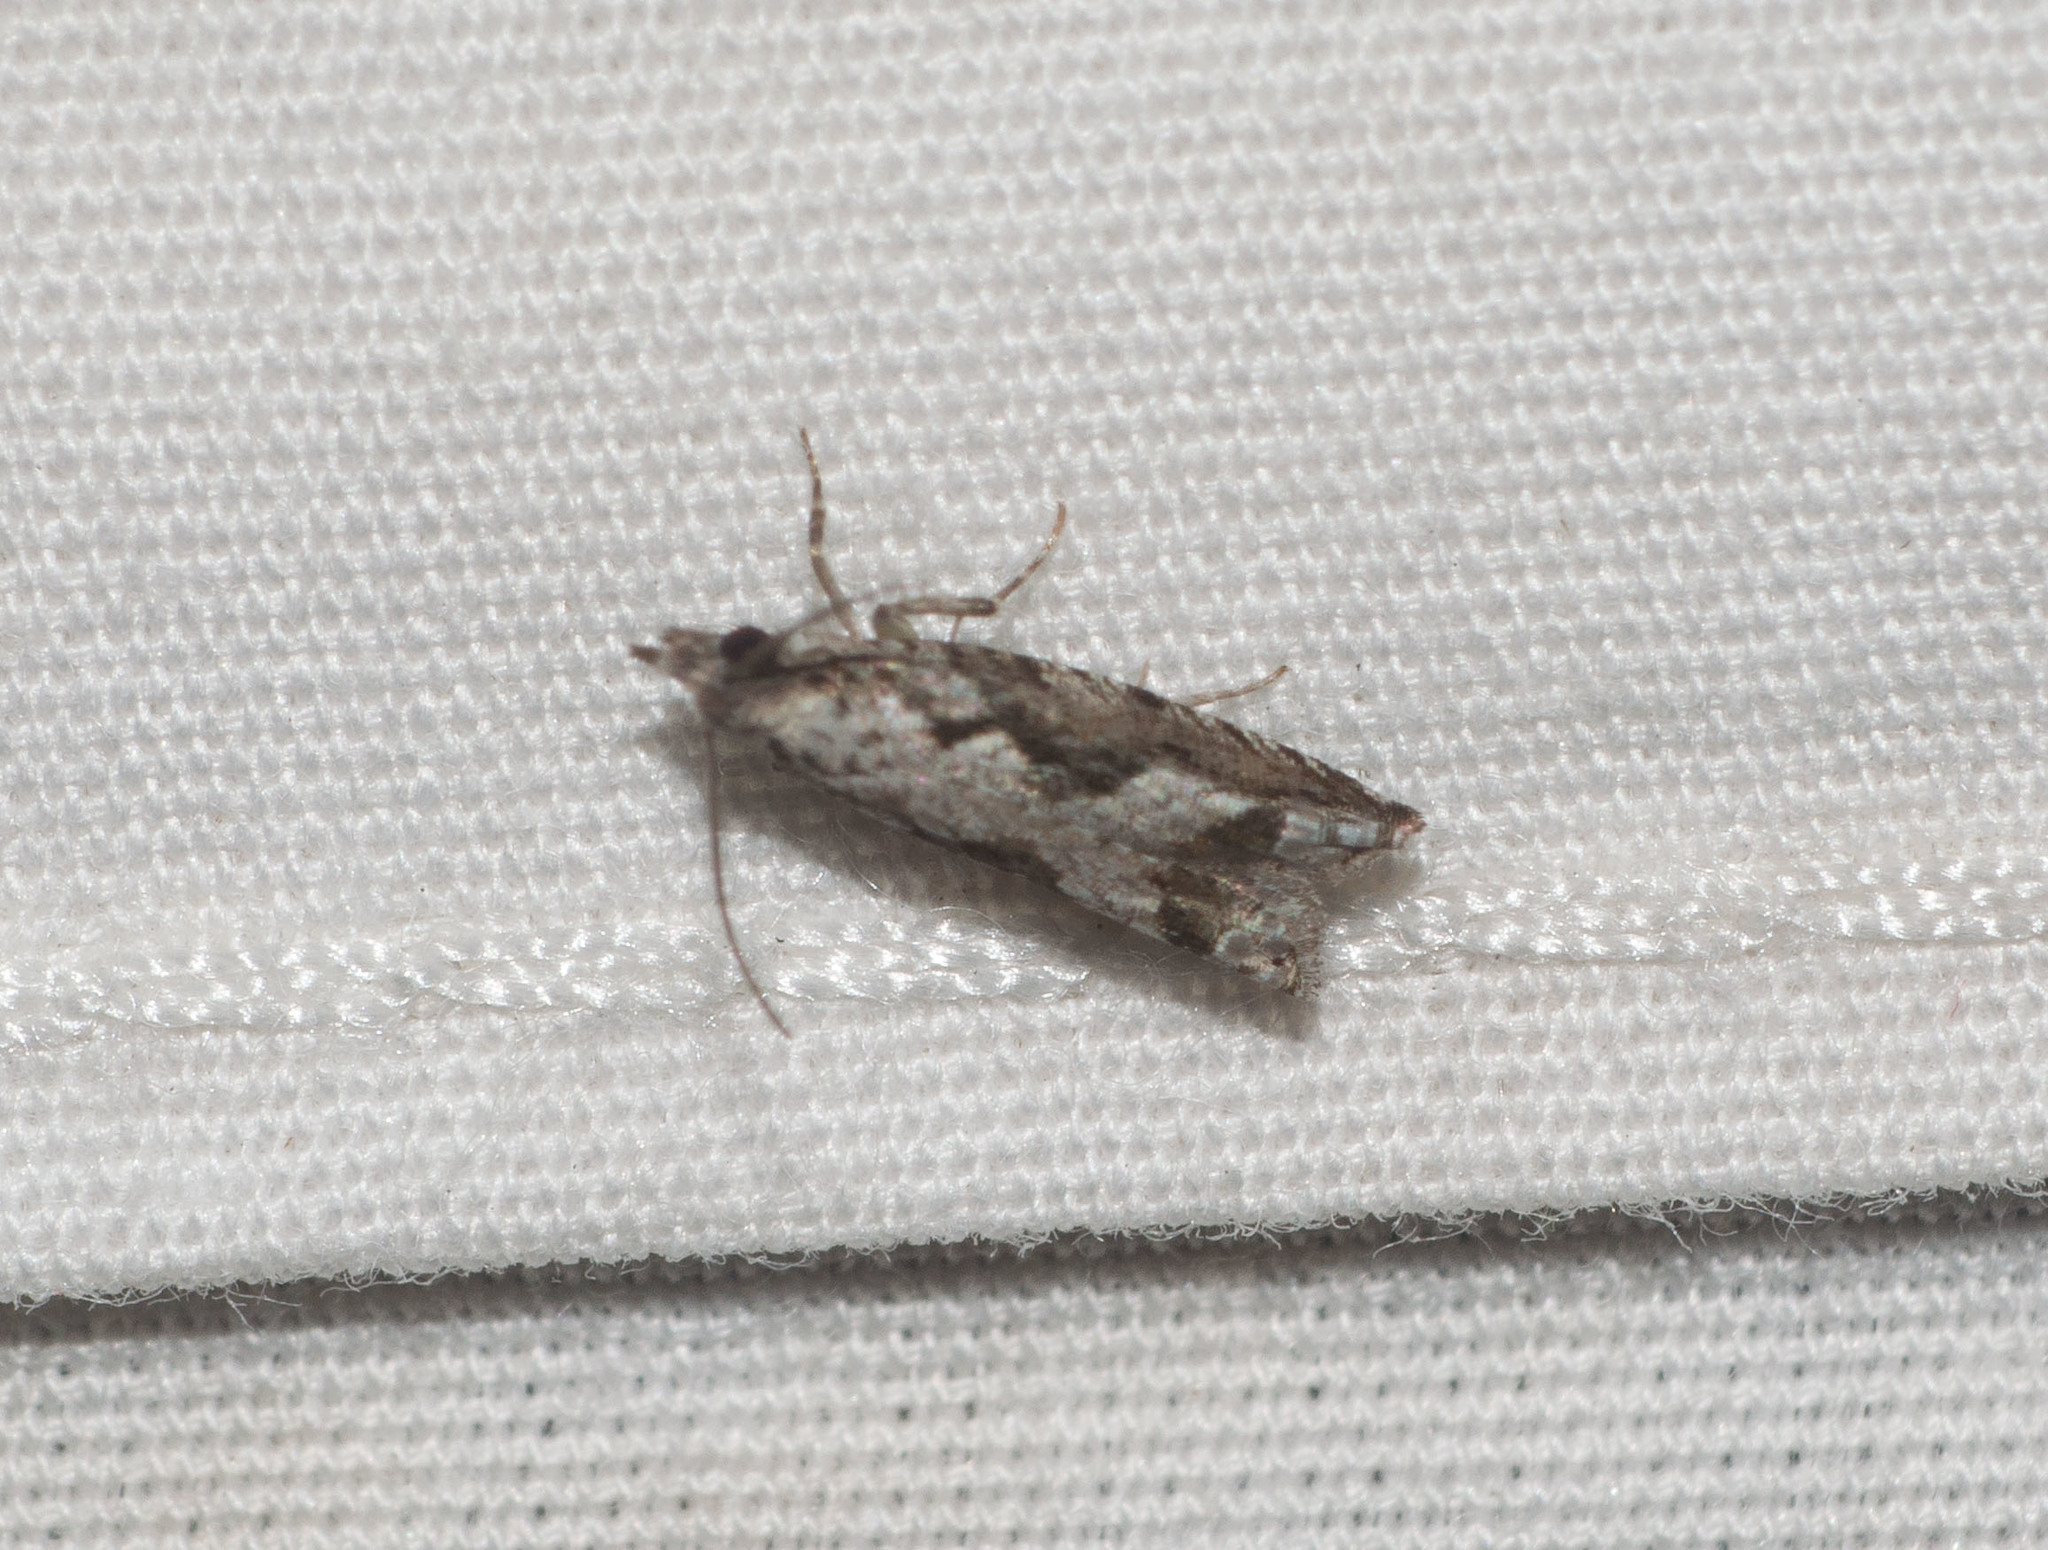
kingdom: Animalia
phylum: Arthropoda
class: Insecta
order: Lepidoptera
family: Tortricidae
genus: Eccoptocera
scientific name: Eccoptocera foetorivorans
